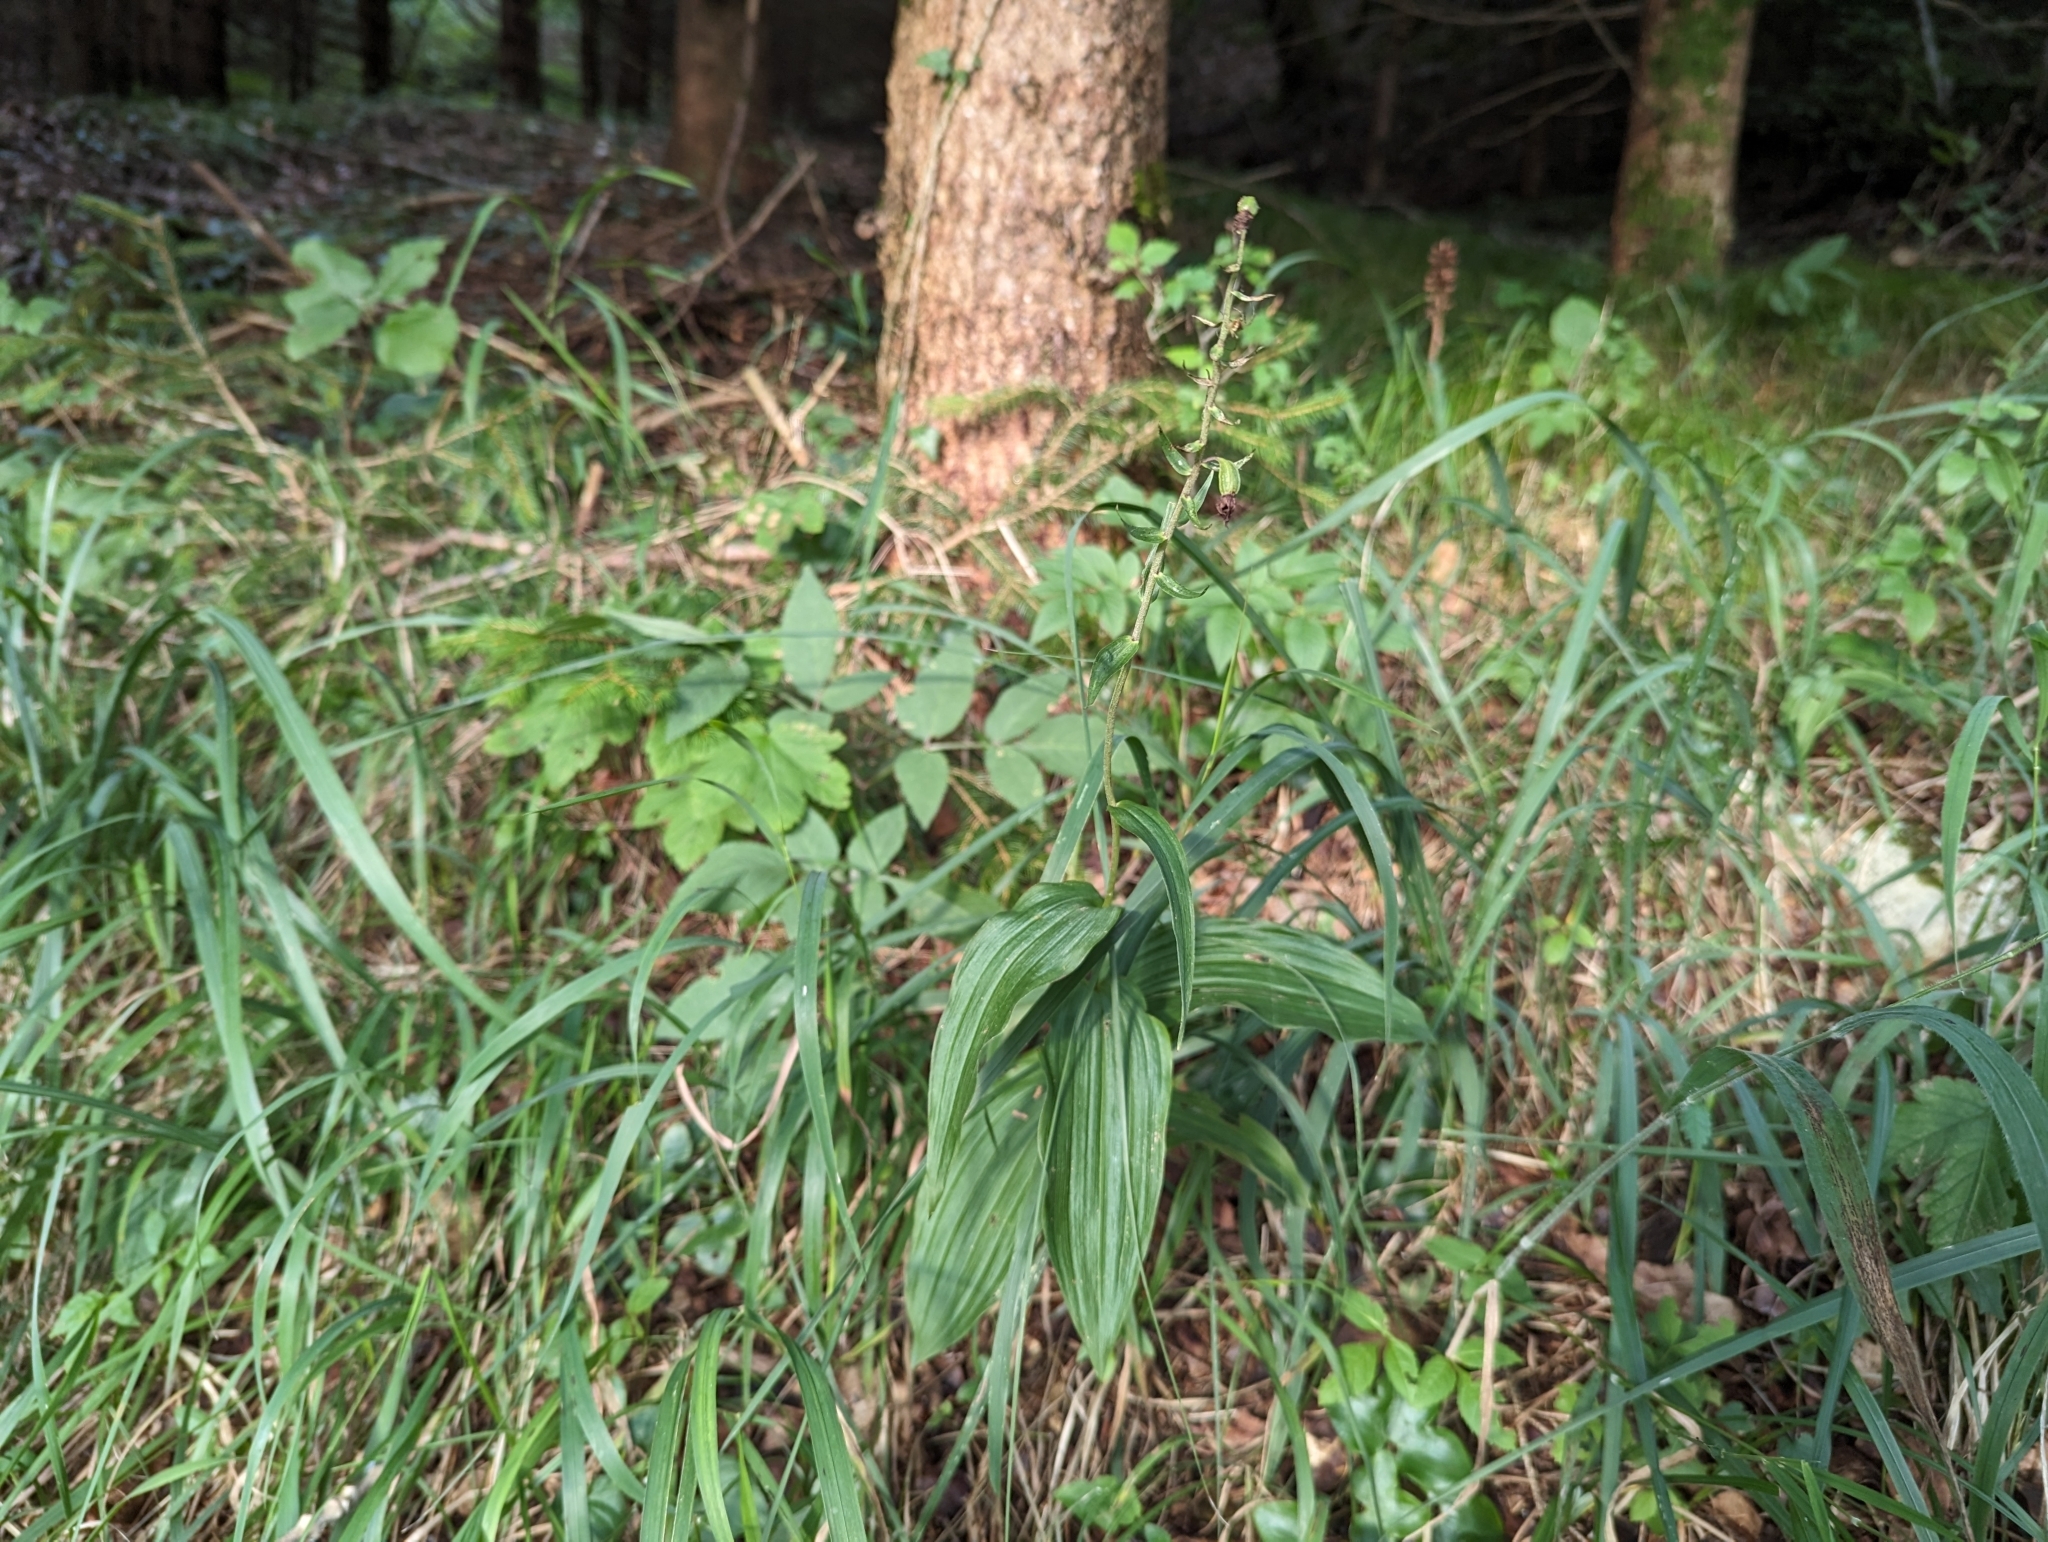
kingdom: Plantae
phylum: Tracheophyta
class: Liliopsida
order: Asparagales
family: Orchidaceae
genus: Epipactis
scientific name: Epipactis helleborine
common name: Broad-leaved helleborine
